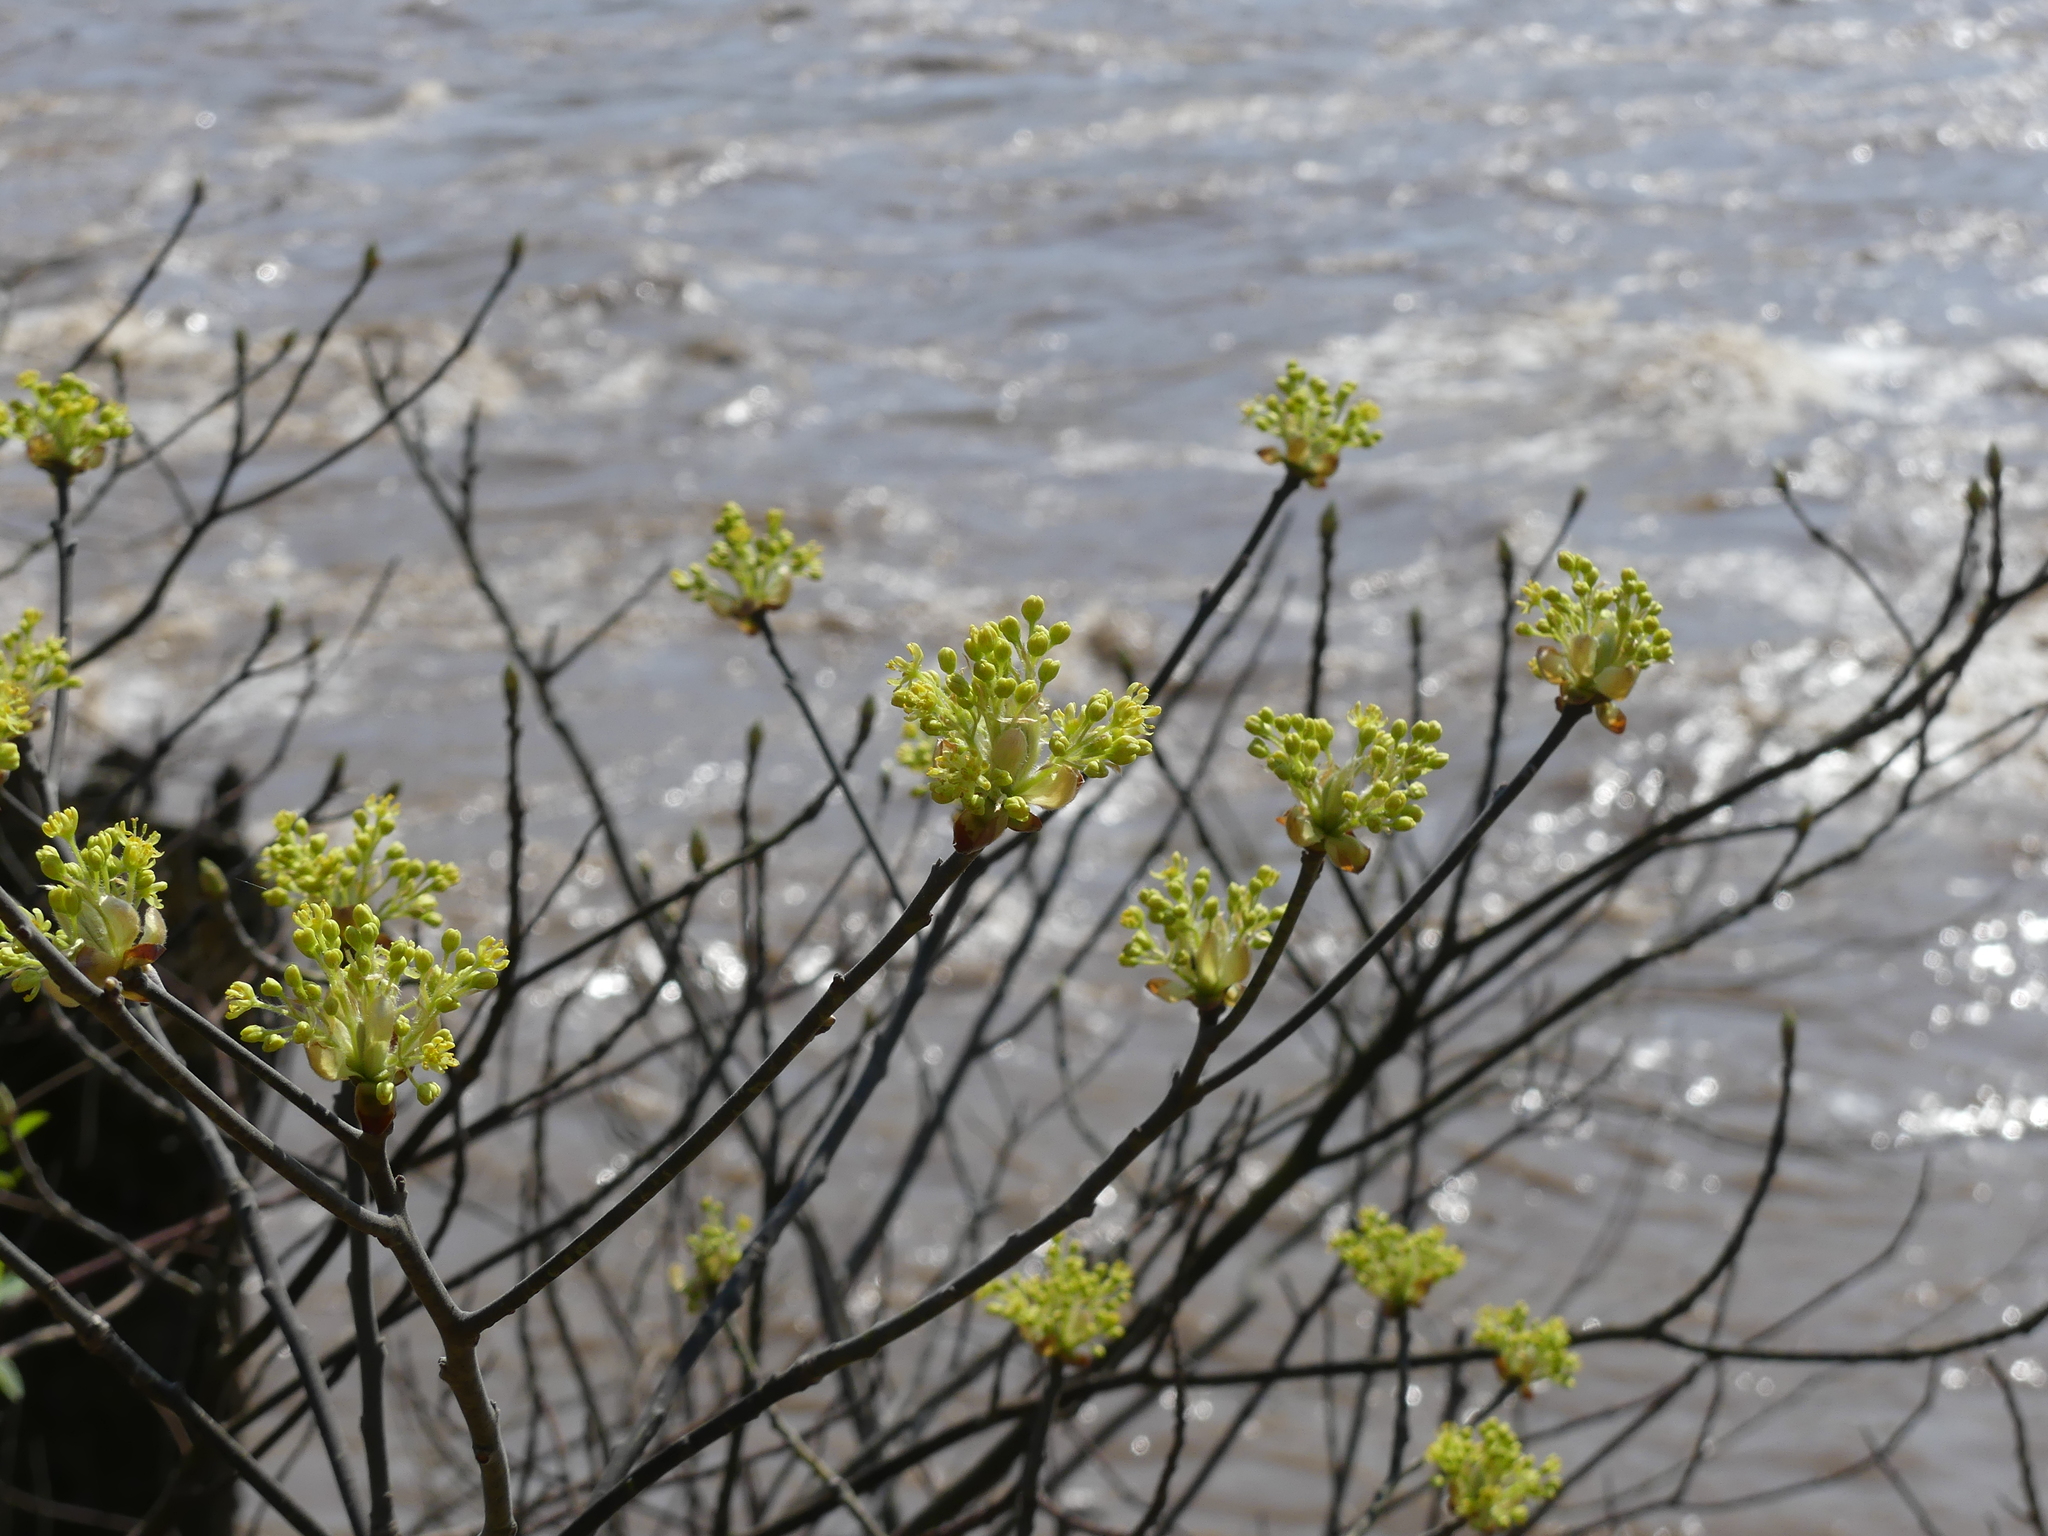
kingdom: Plantae
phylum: Tracheophyta
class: Magnoliopsida
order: Laurales
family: Lauraceae
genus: Sassafras
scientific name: Sassafras albidum
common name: Sassafras
